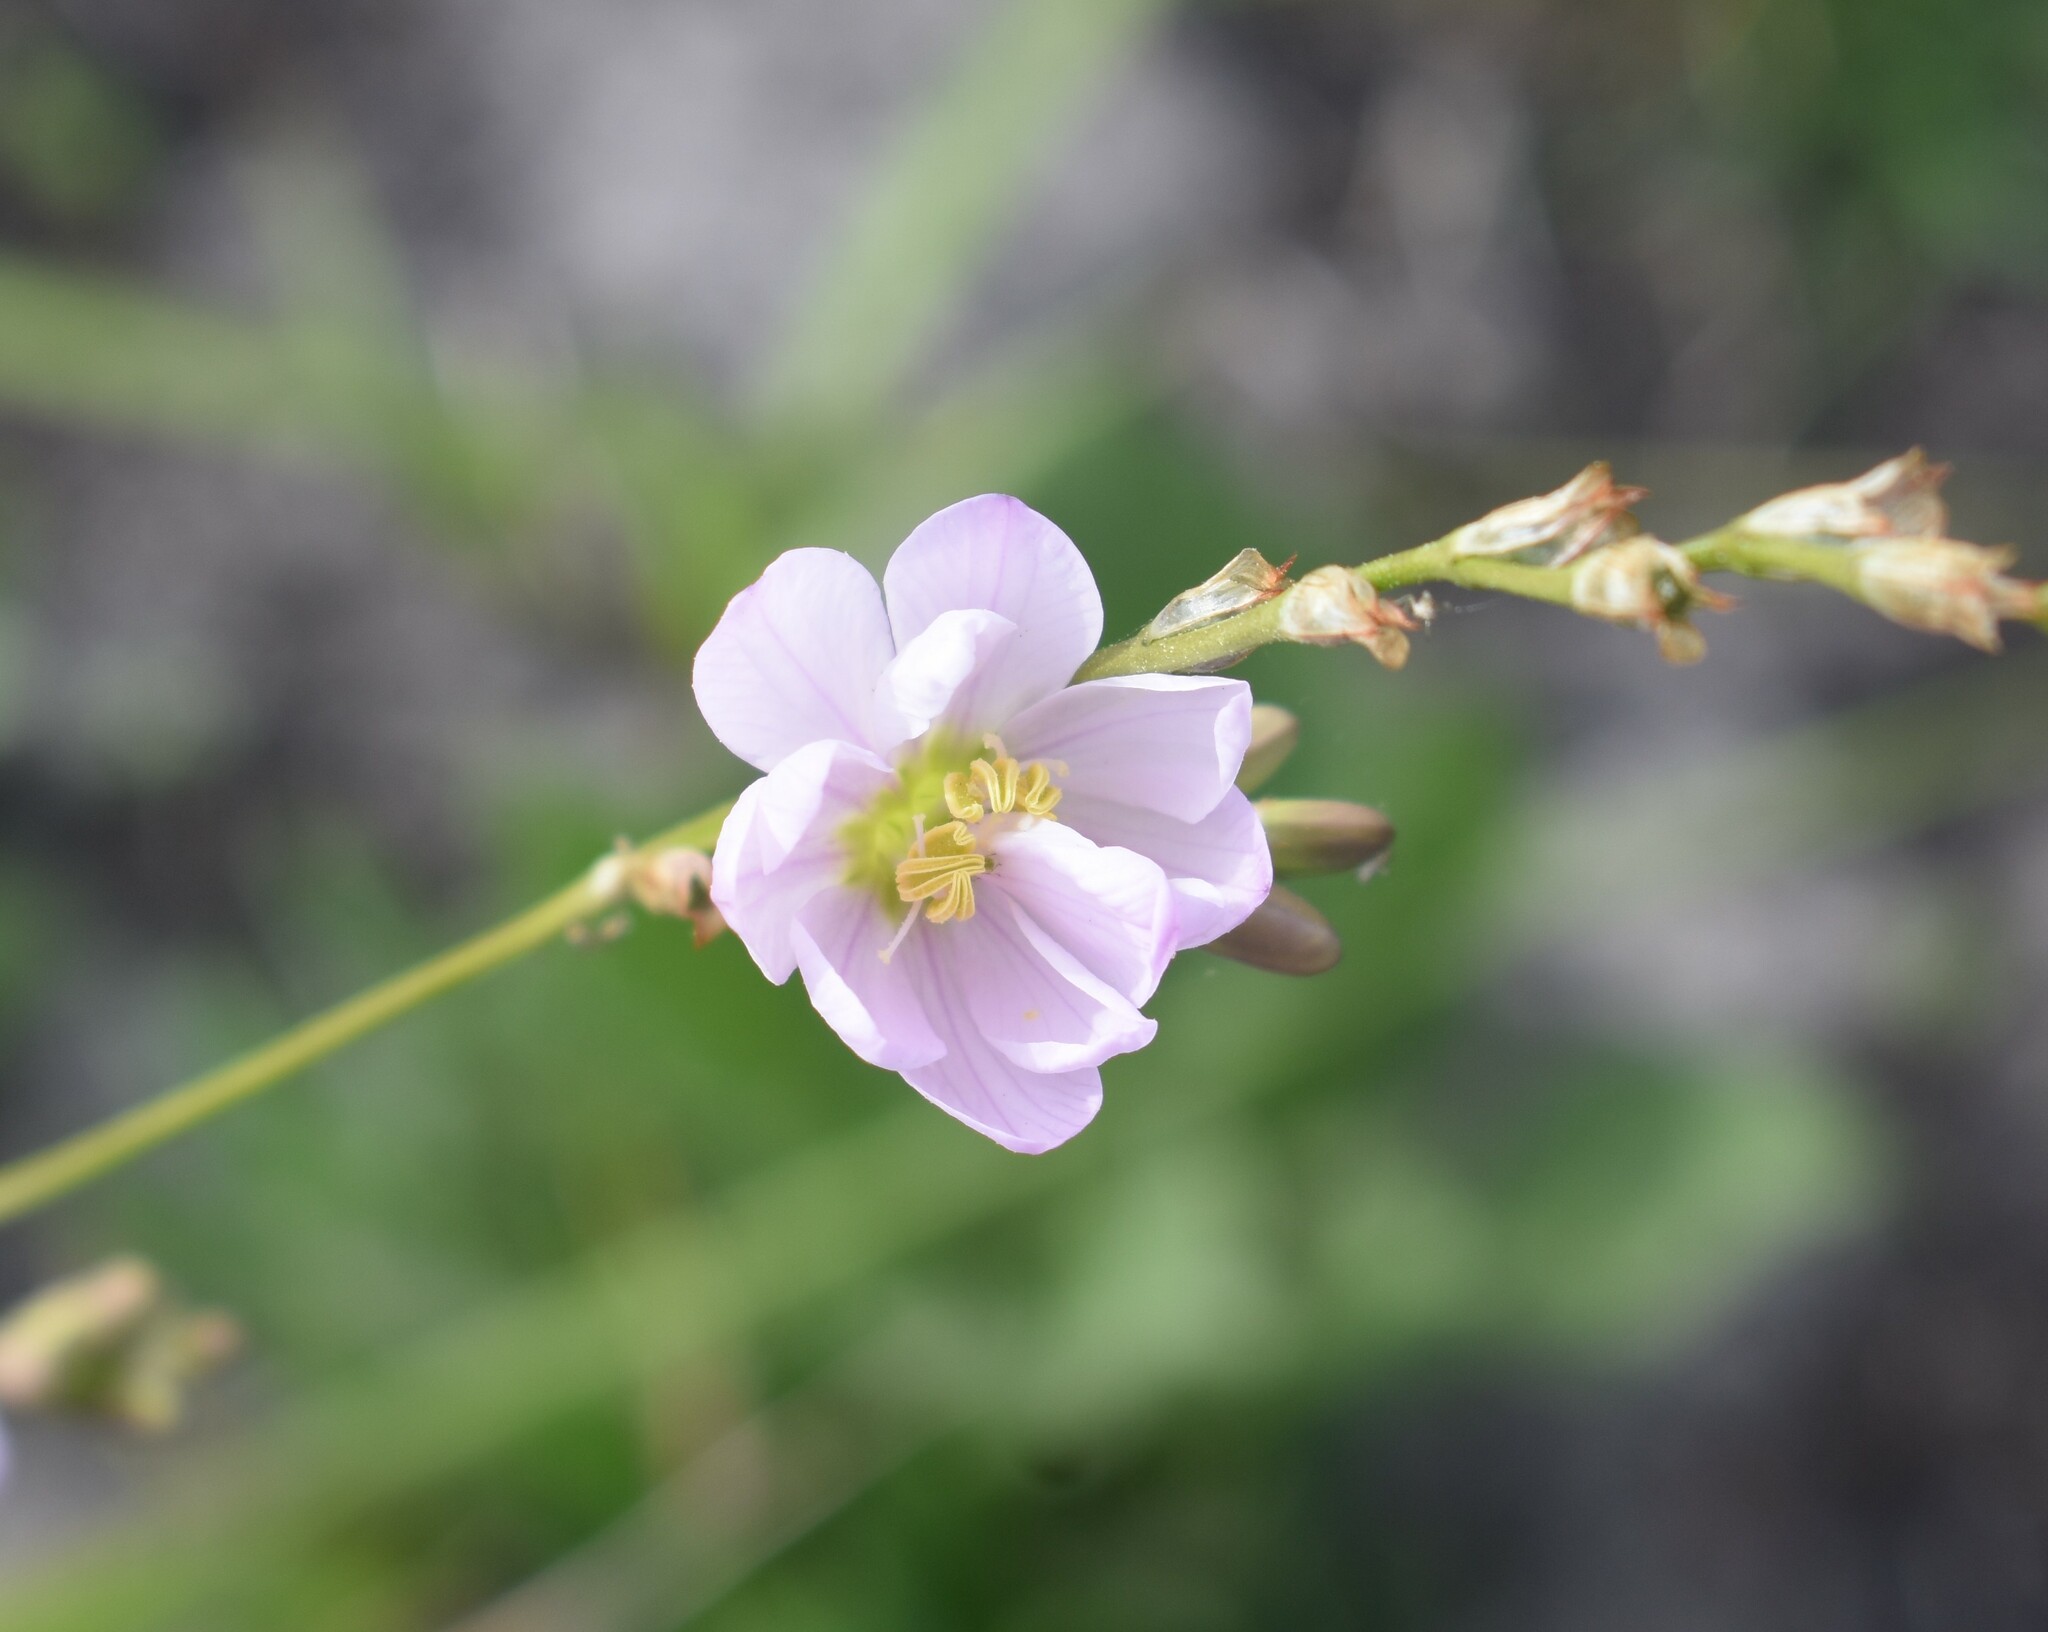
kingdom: Plantae
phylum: Tracheophyta
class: Liliopsida
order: Asparagales
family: Iridaceae
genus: Ixia
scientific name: Ixia orientalis
